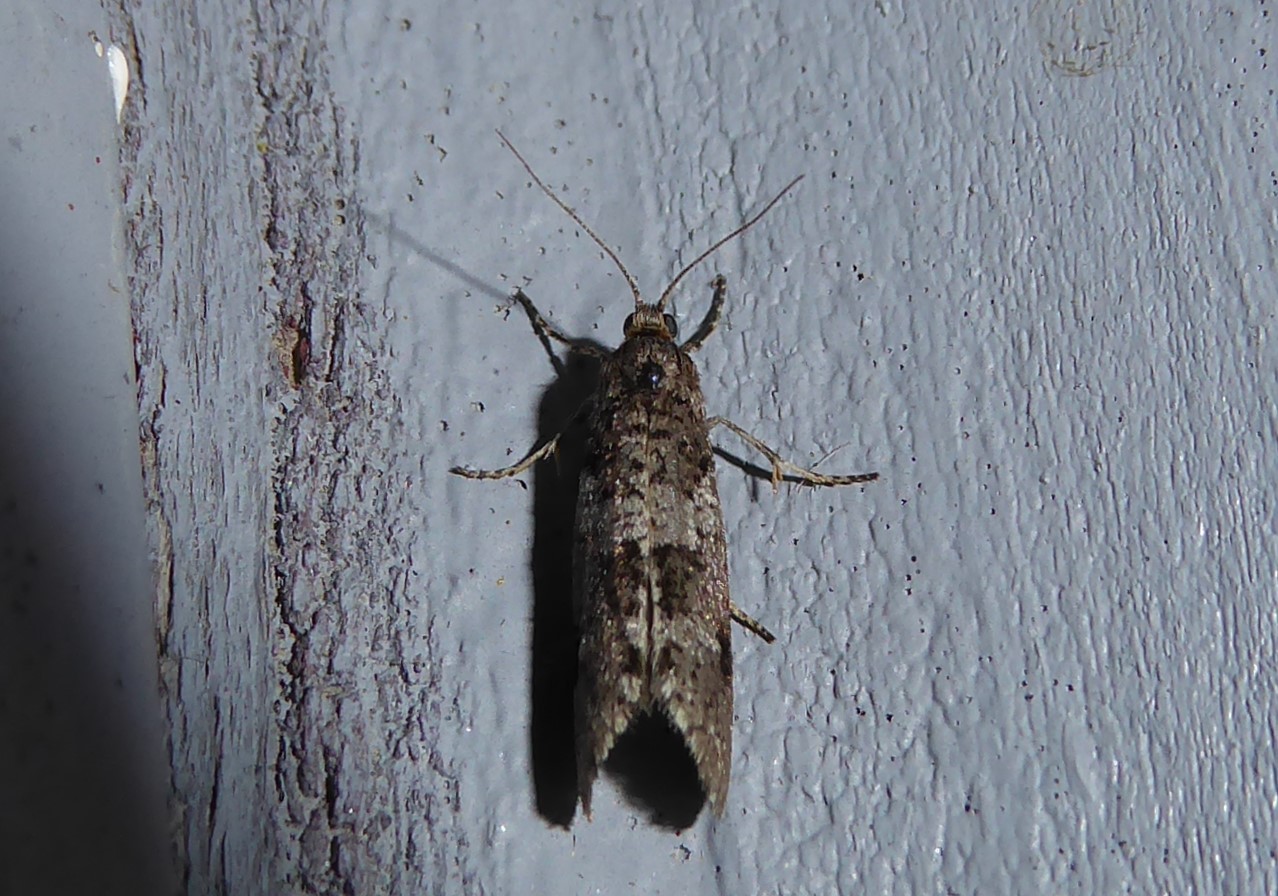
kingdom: Animalia
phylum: Arthropoda
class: Insecta
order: Lepidoptera
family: Psychidae
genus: Lepidoscia
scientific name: Lepidoscia heliochares
